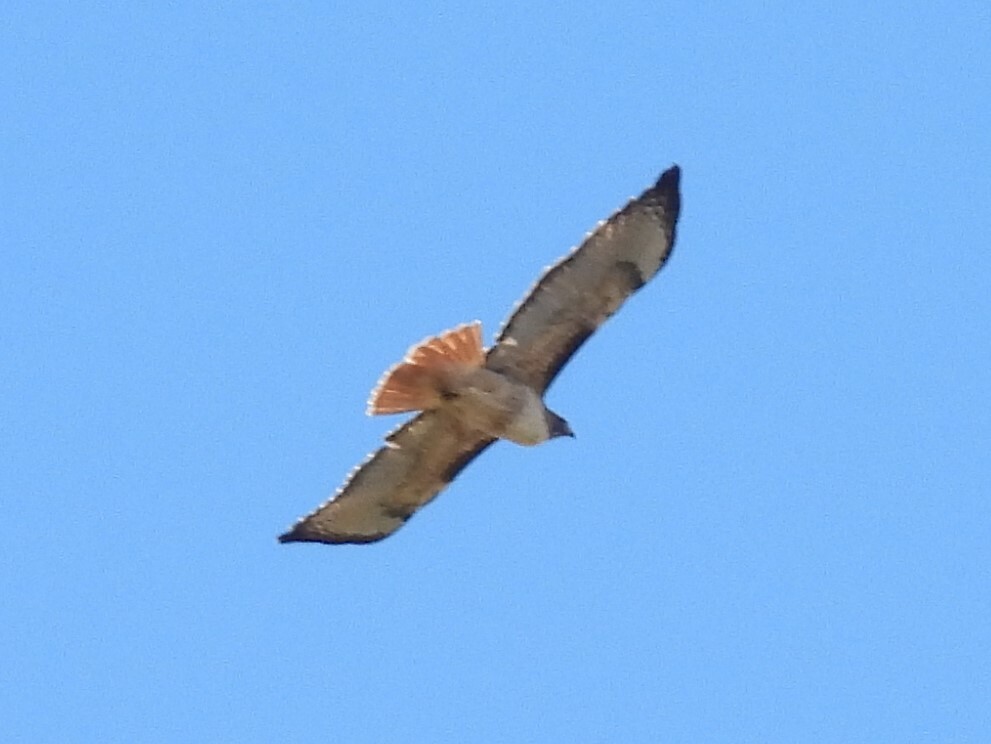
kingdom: Animalia
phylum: Chordata
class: Aves
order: Accipitriformes
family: Accipitridae
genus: Buteo
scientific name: Buteo jamaicensis
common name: Red-tailed hawk
